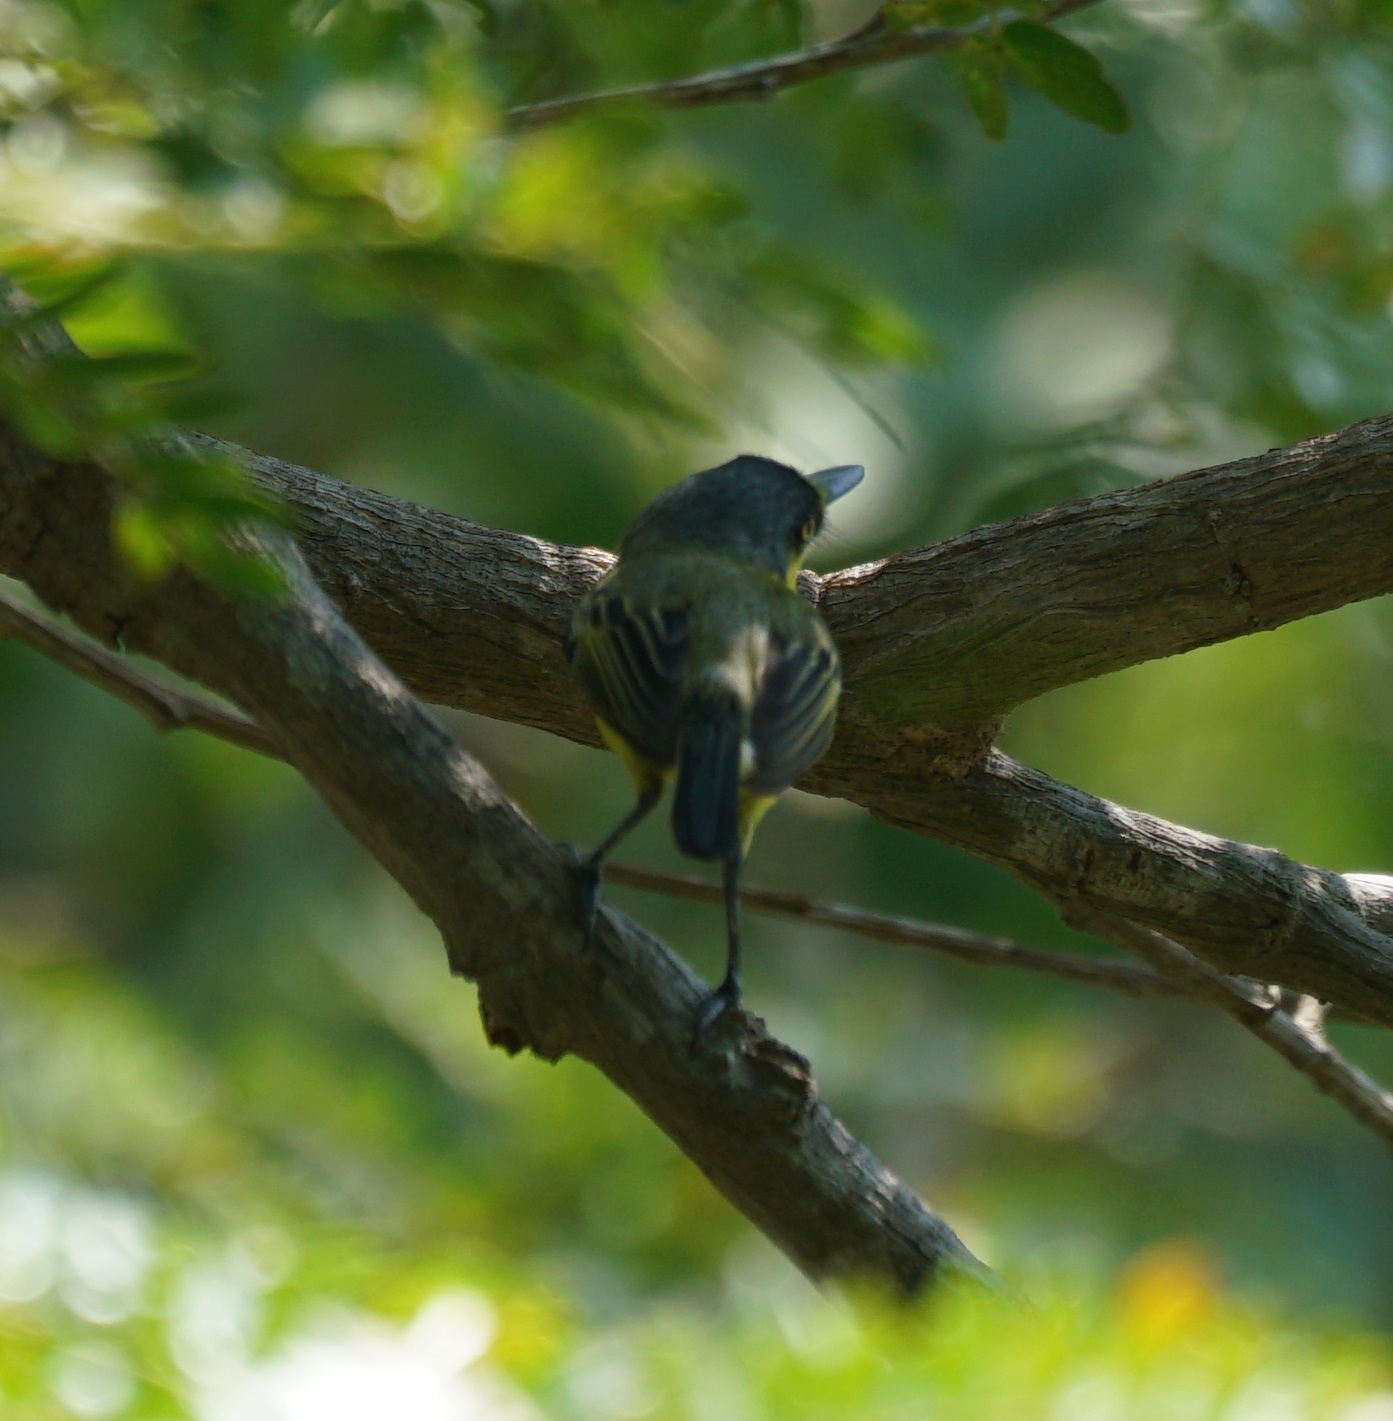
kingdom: Animalia
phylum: Chordata
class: Aves
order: Passeriformes
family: Tyrannidae
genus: Todirostrum
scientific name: Todirostrum cinereum
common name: Common tody-flycatcher
